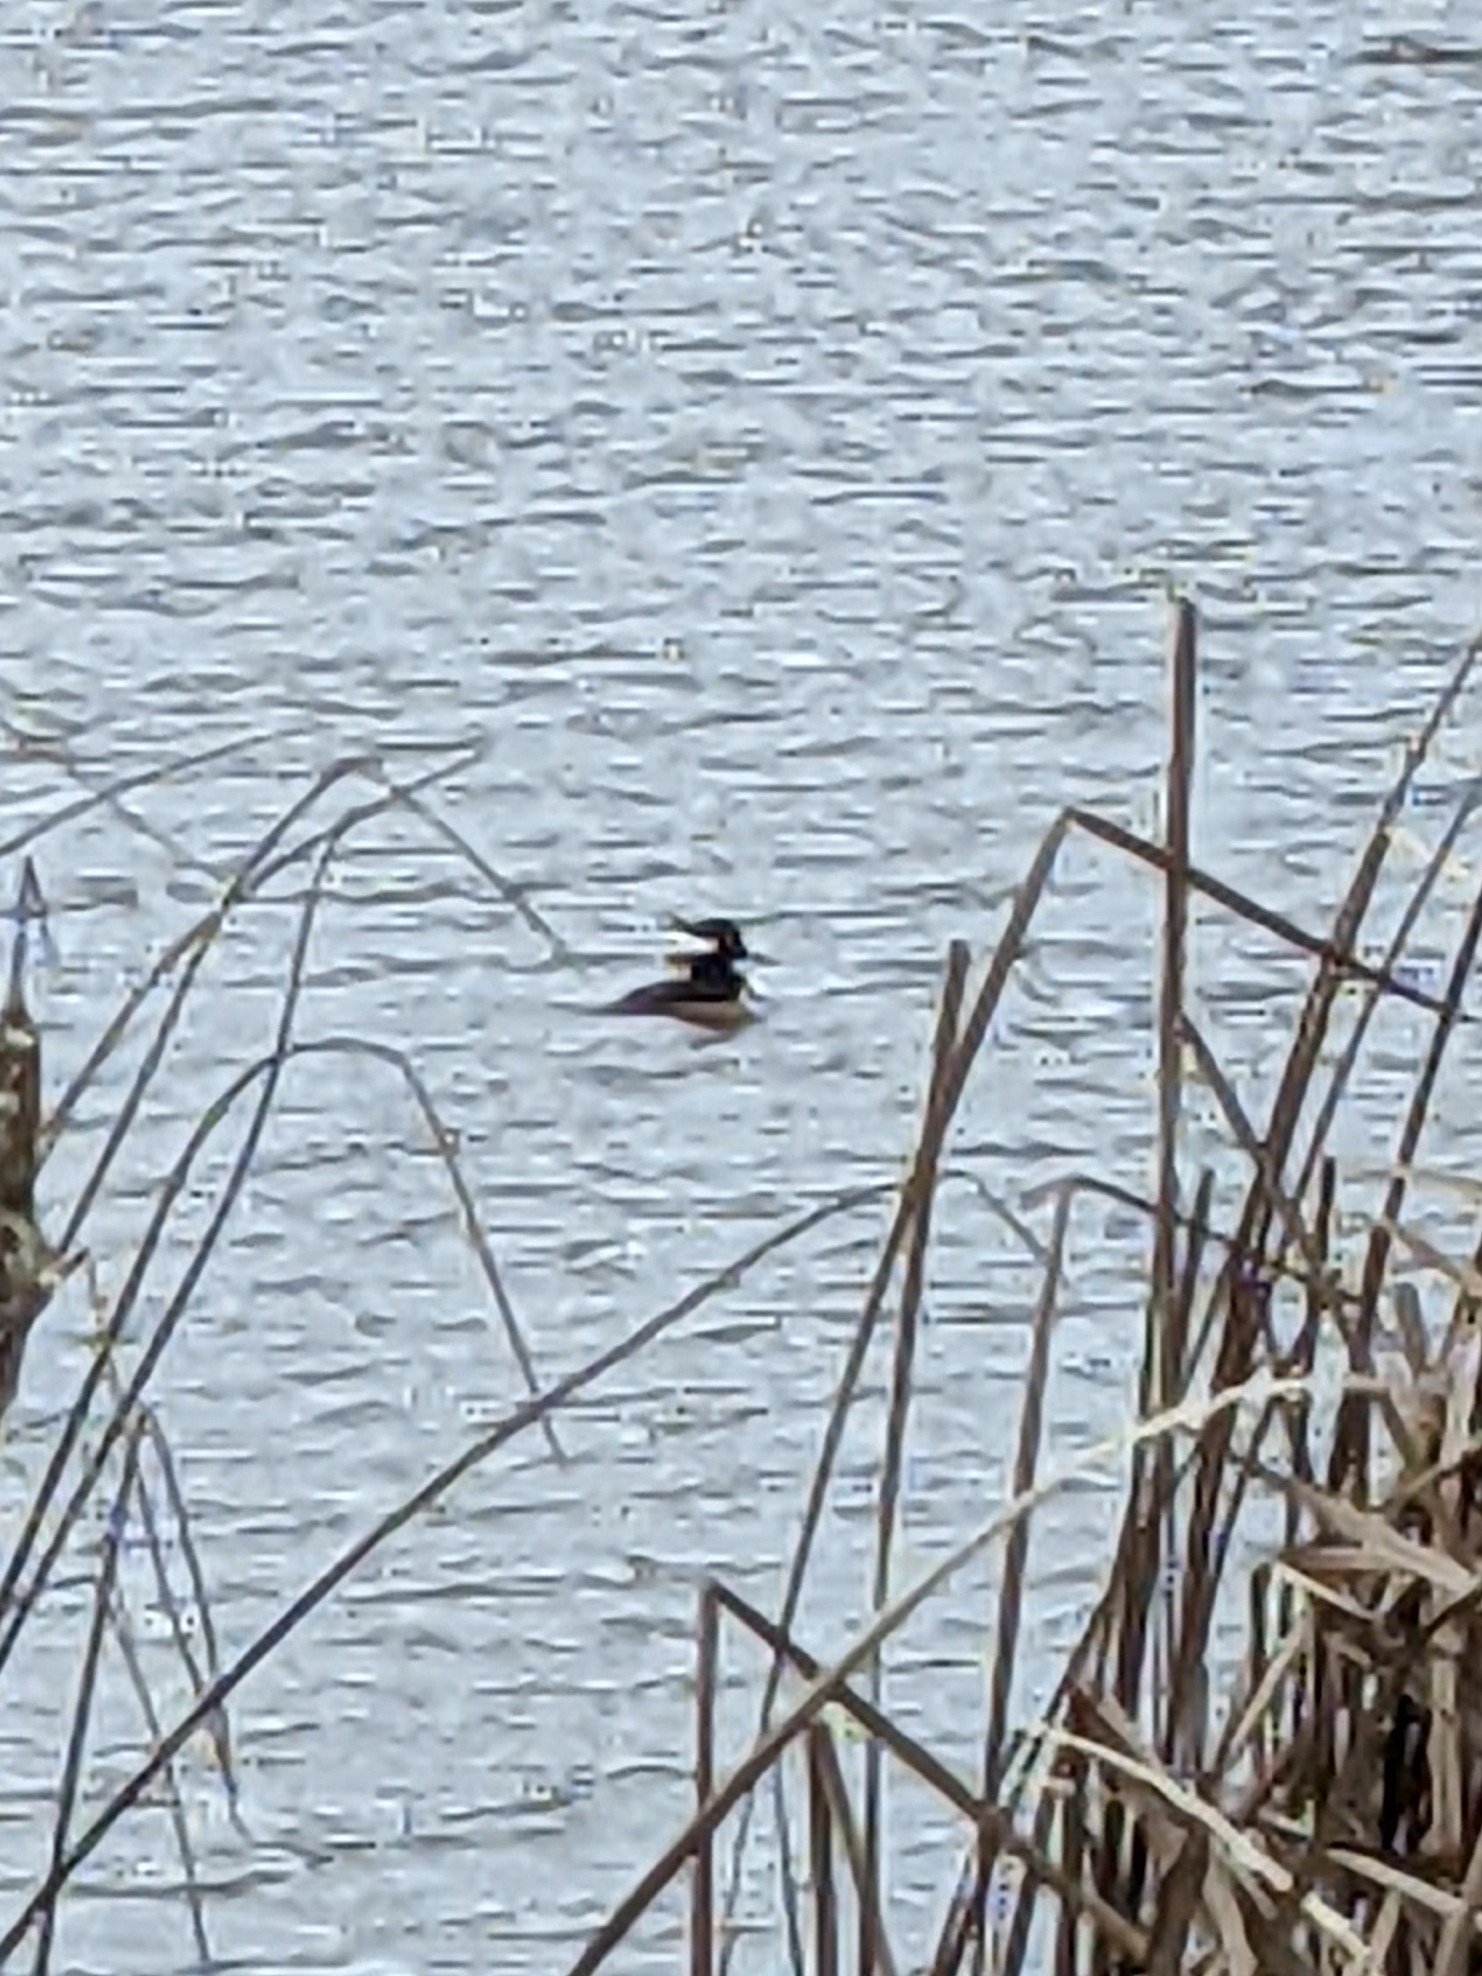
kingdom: Animalia
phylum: Chordata
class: Aves
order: Anseriformes
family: Anatidae
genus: Lophodytes
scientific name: Lophodytes cucullatus
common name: Hooded merganser
